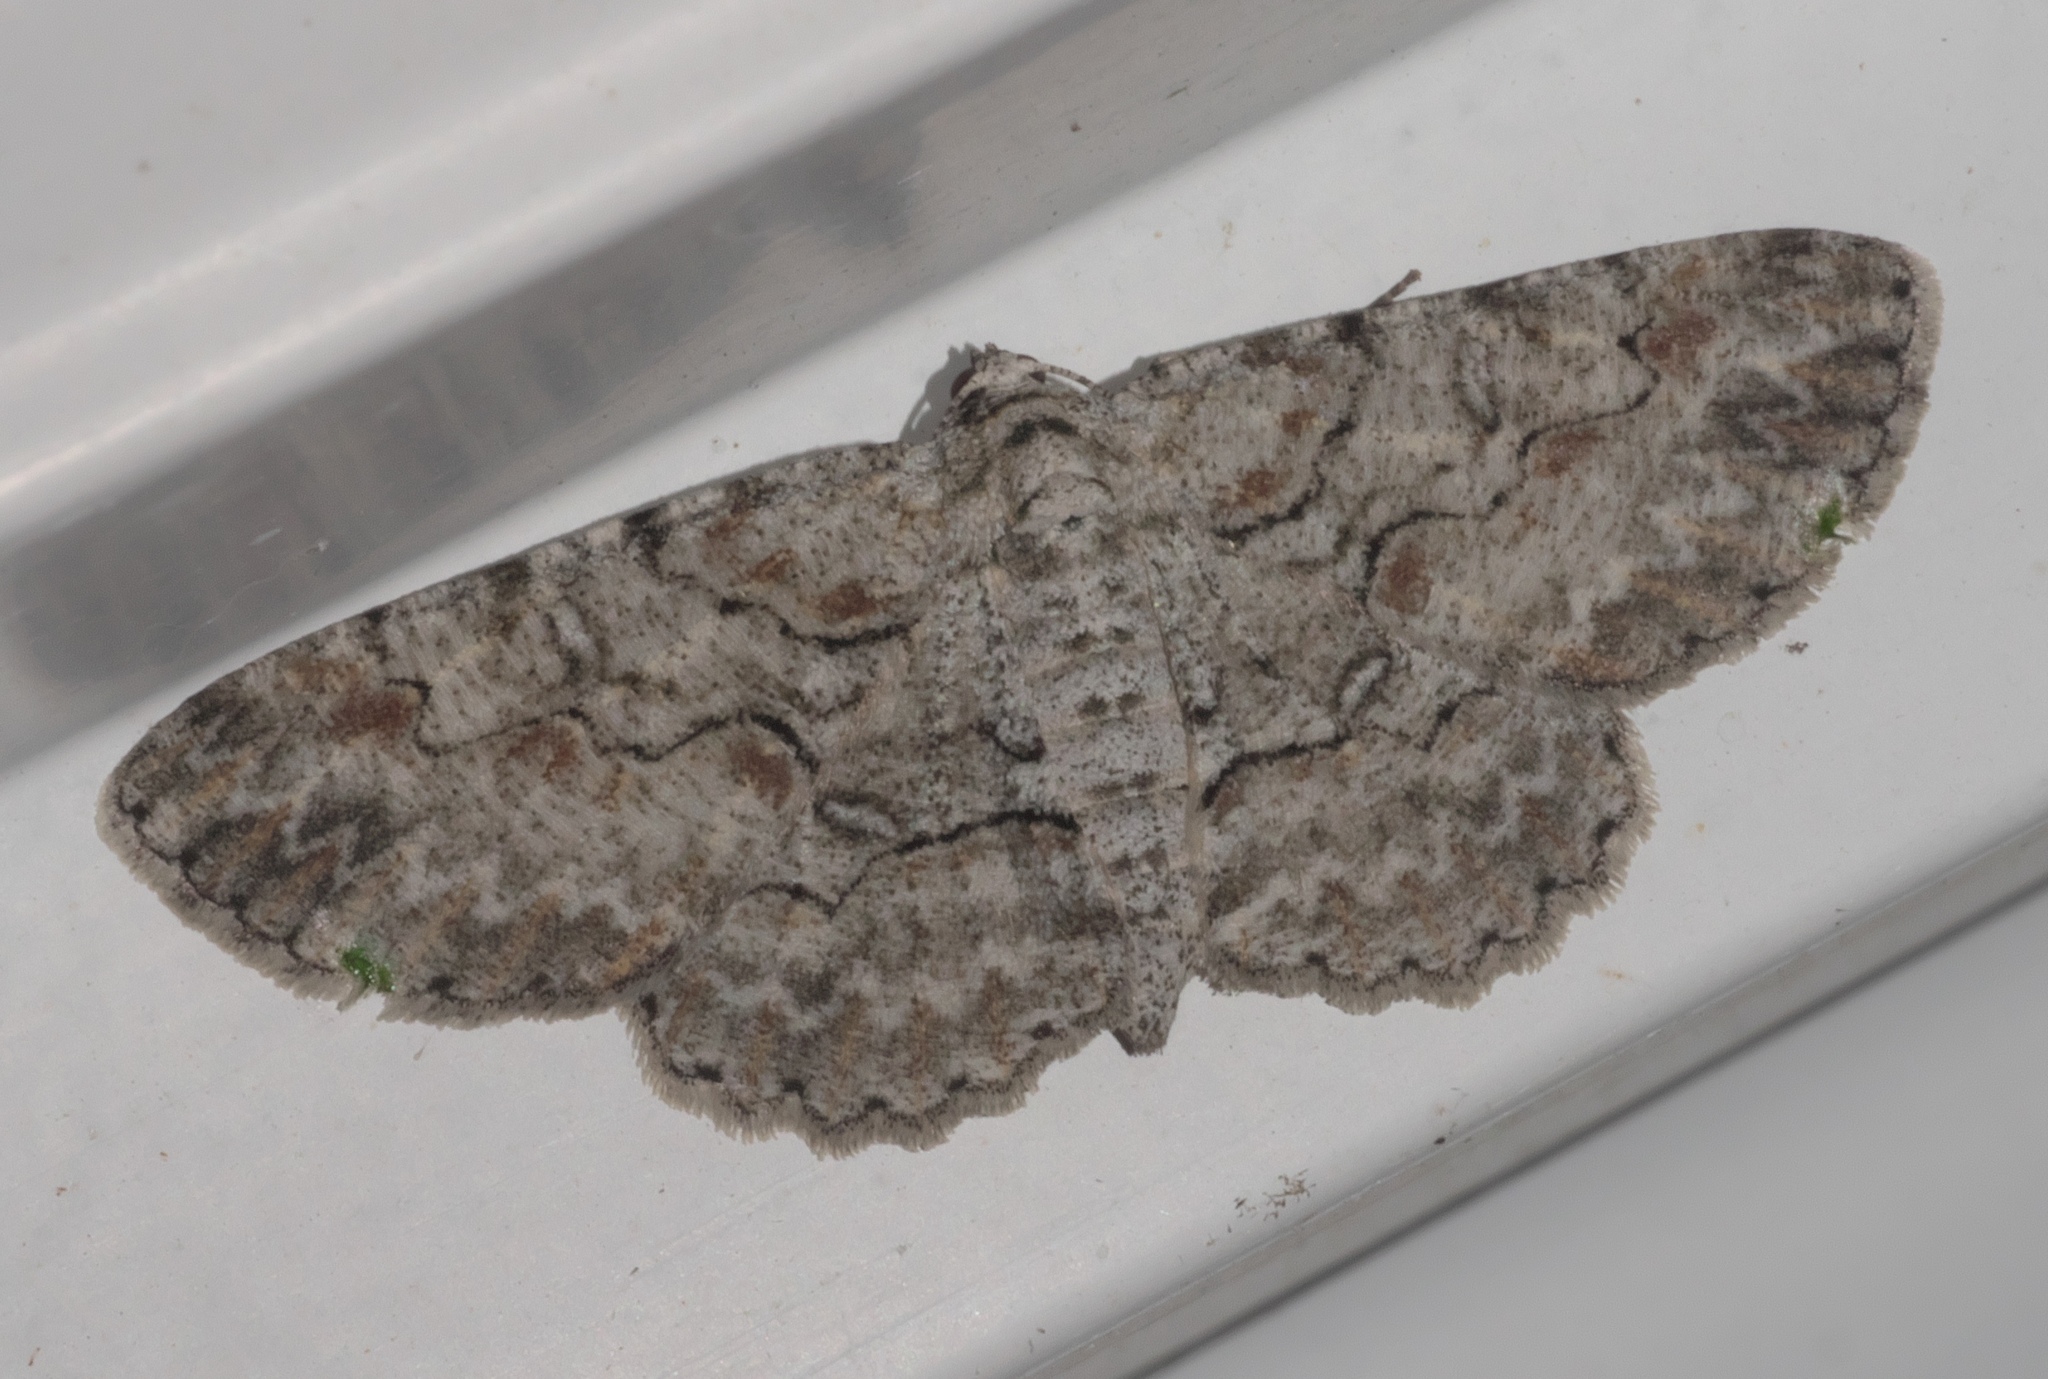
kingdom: Animalia
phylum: Arthropoda
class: Insecta
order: Lepidoptera
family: Geometridae
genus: Iridopsis
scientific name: Iridopsis defectaria
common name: Brown-shaded gray
